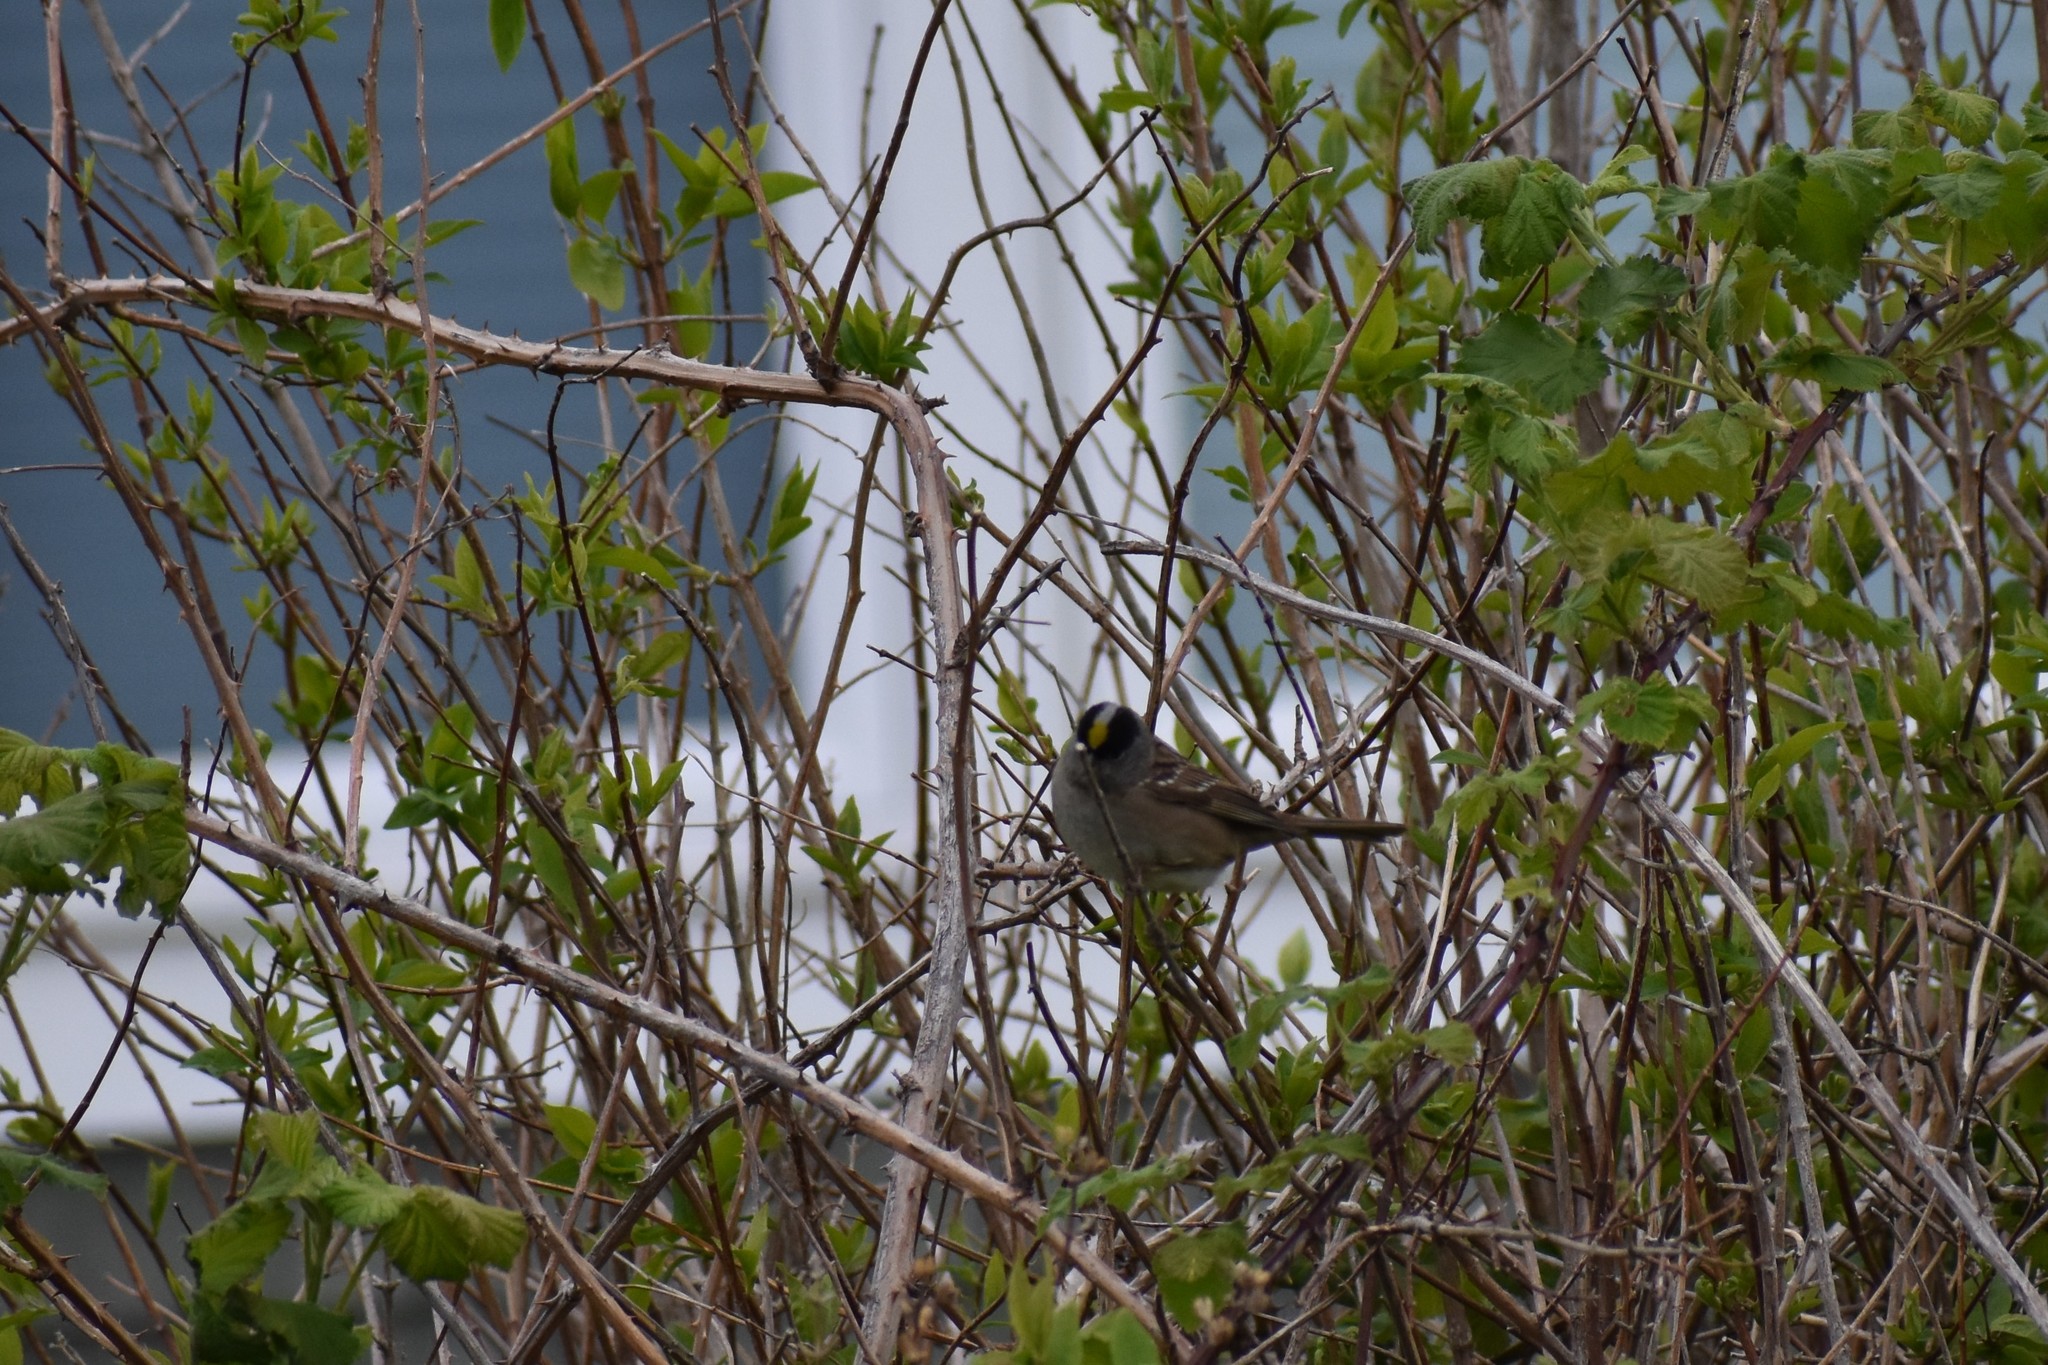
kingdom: Animalia
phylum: Chordata
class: Aves
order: Passeriformes
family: Passerellidae
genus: Zonotrichia
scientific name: Zonotrichia atricapilla
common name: Golden-crowned sparrow
